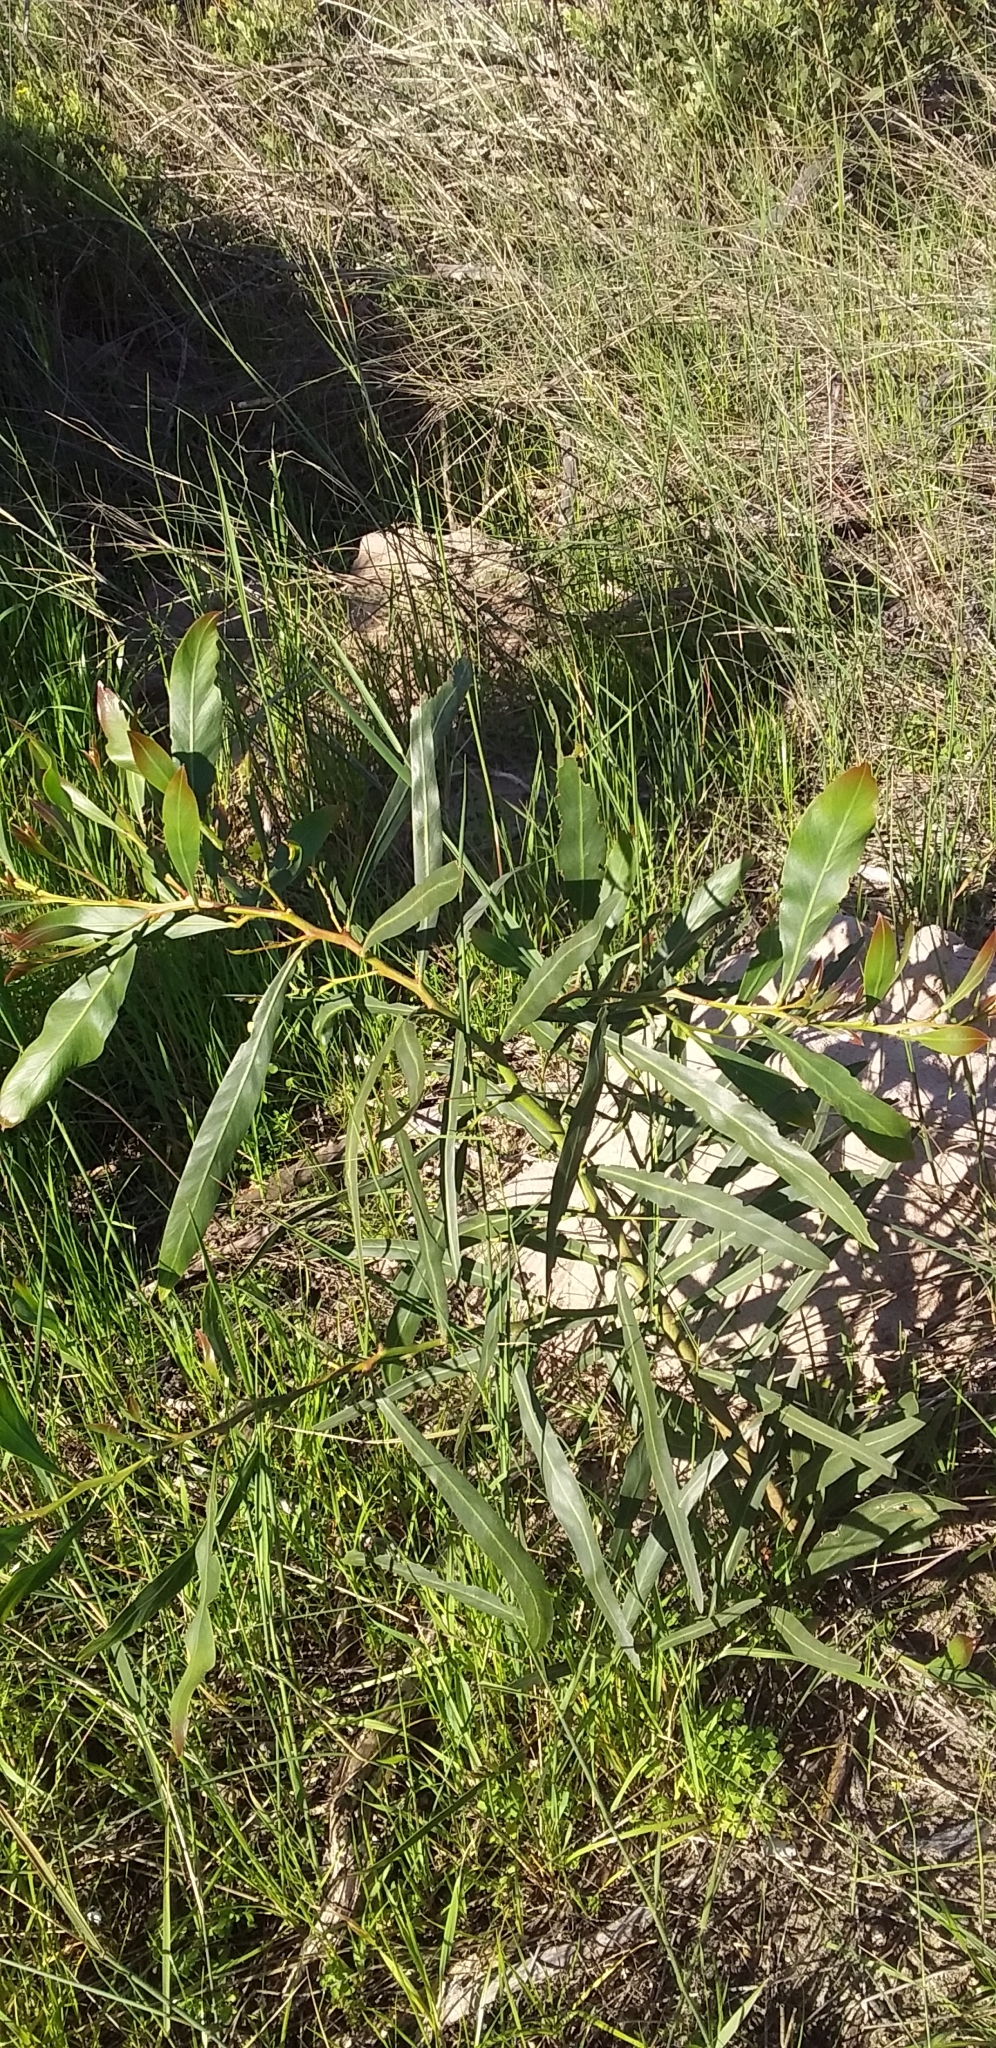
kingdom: Plantae
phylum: Tracheophyta
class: Magnoliopsida
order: Fabales
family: Fabaceae
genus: Acacia
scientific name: Acacia saligna
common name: Orange wattle
